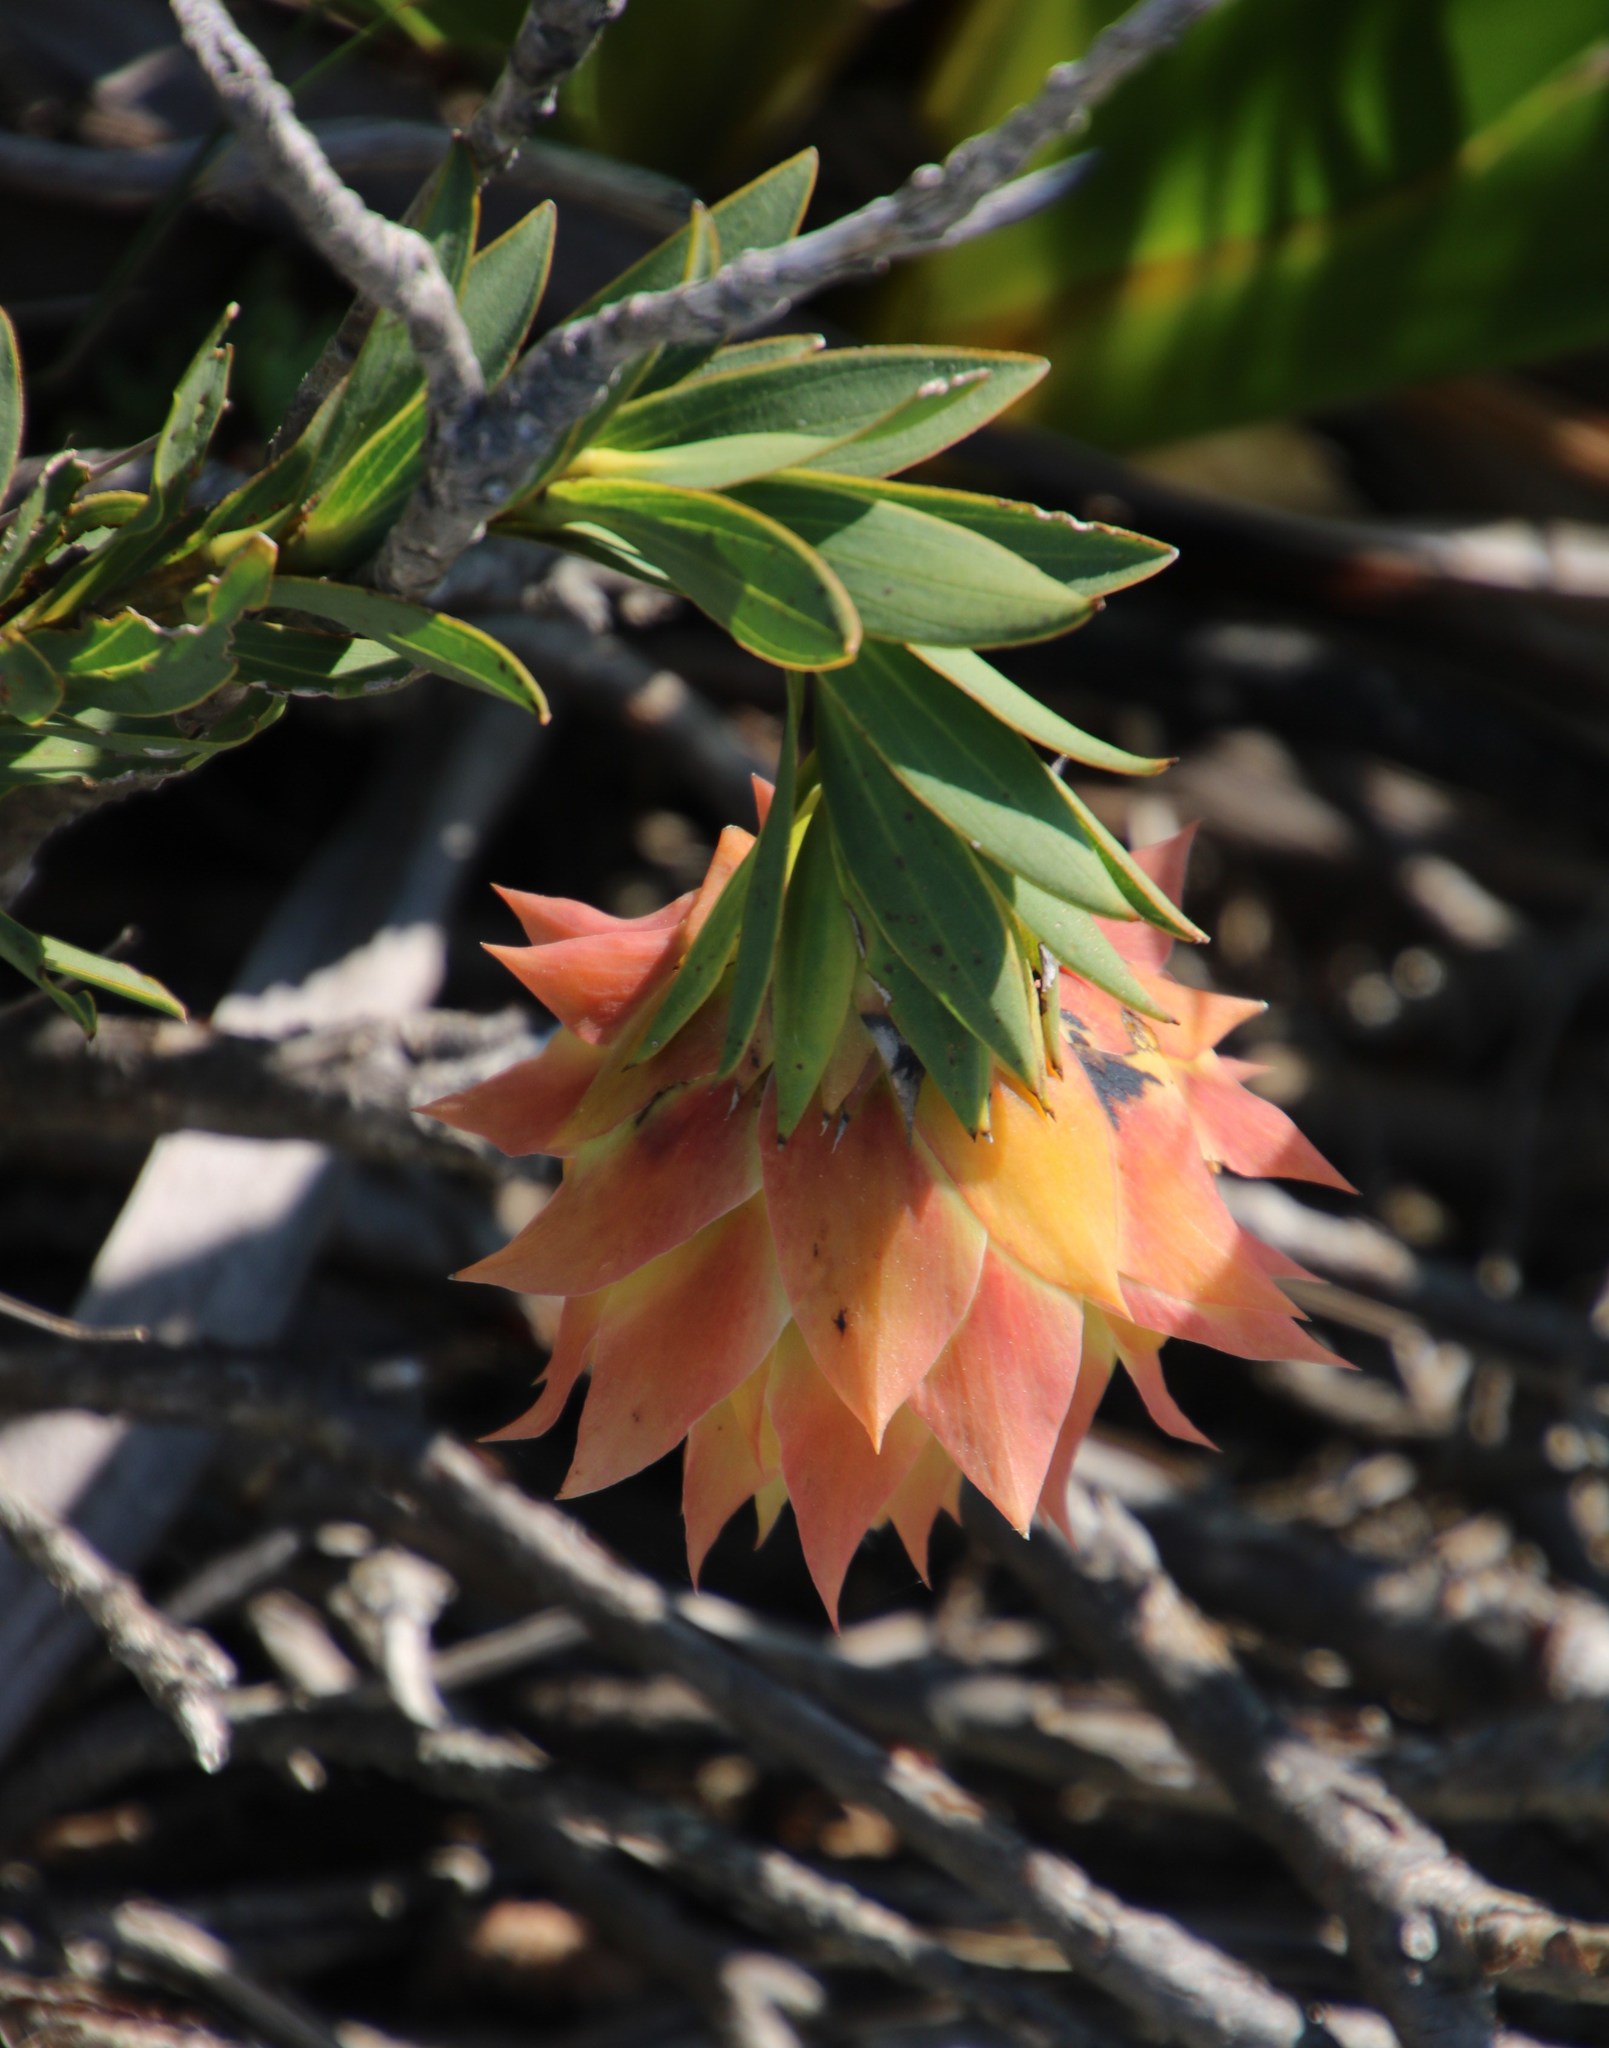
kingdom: Plantae
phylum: Tracheophyta
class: Magnoliopsida
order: Fabales
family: Fabaceae
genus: Liparia
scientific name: Liparia splendens
